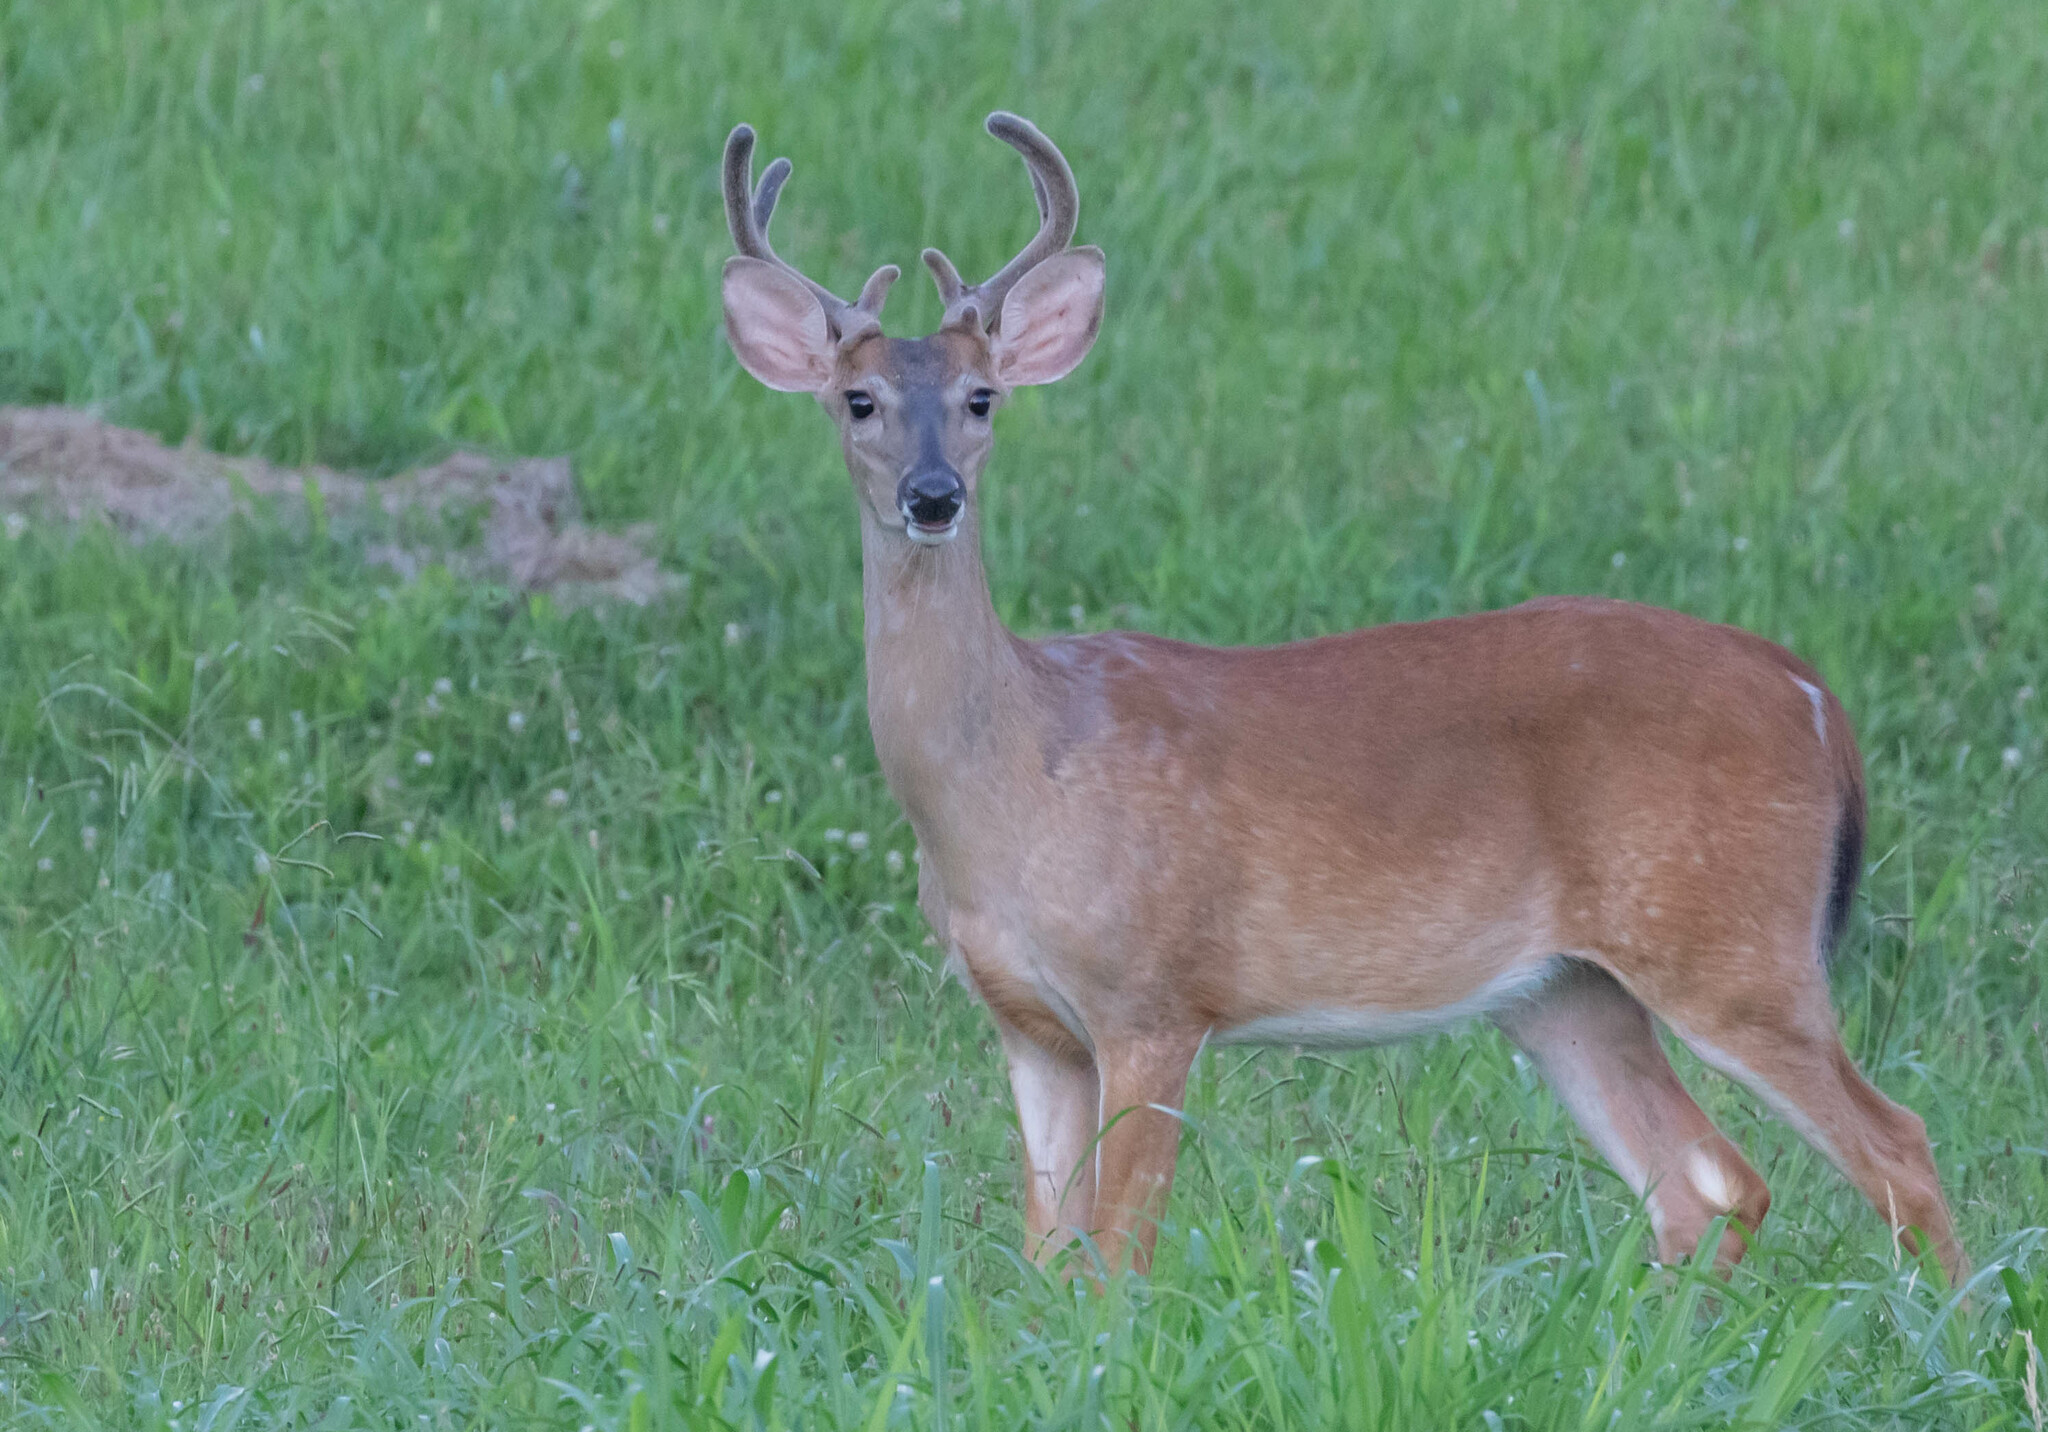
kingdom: Animalia
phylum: Chordata
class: Mammalia
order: Artiodactyla
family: Cervidae
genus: Odocoileus
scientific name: Odocoileus virginianus
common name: White-tailed deer
